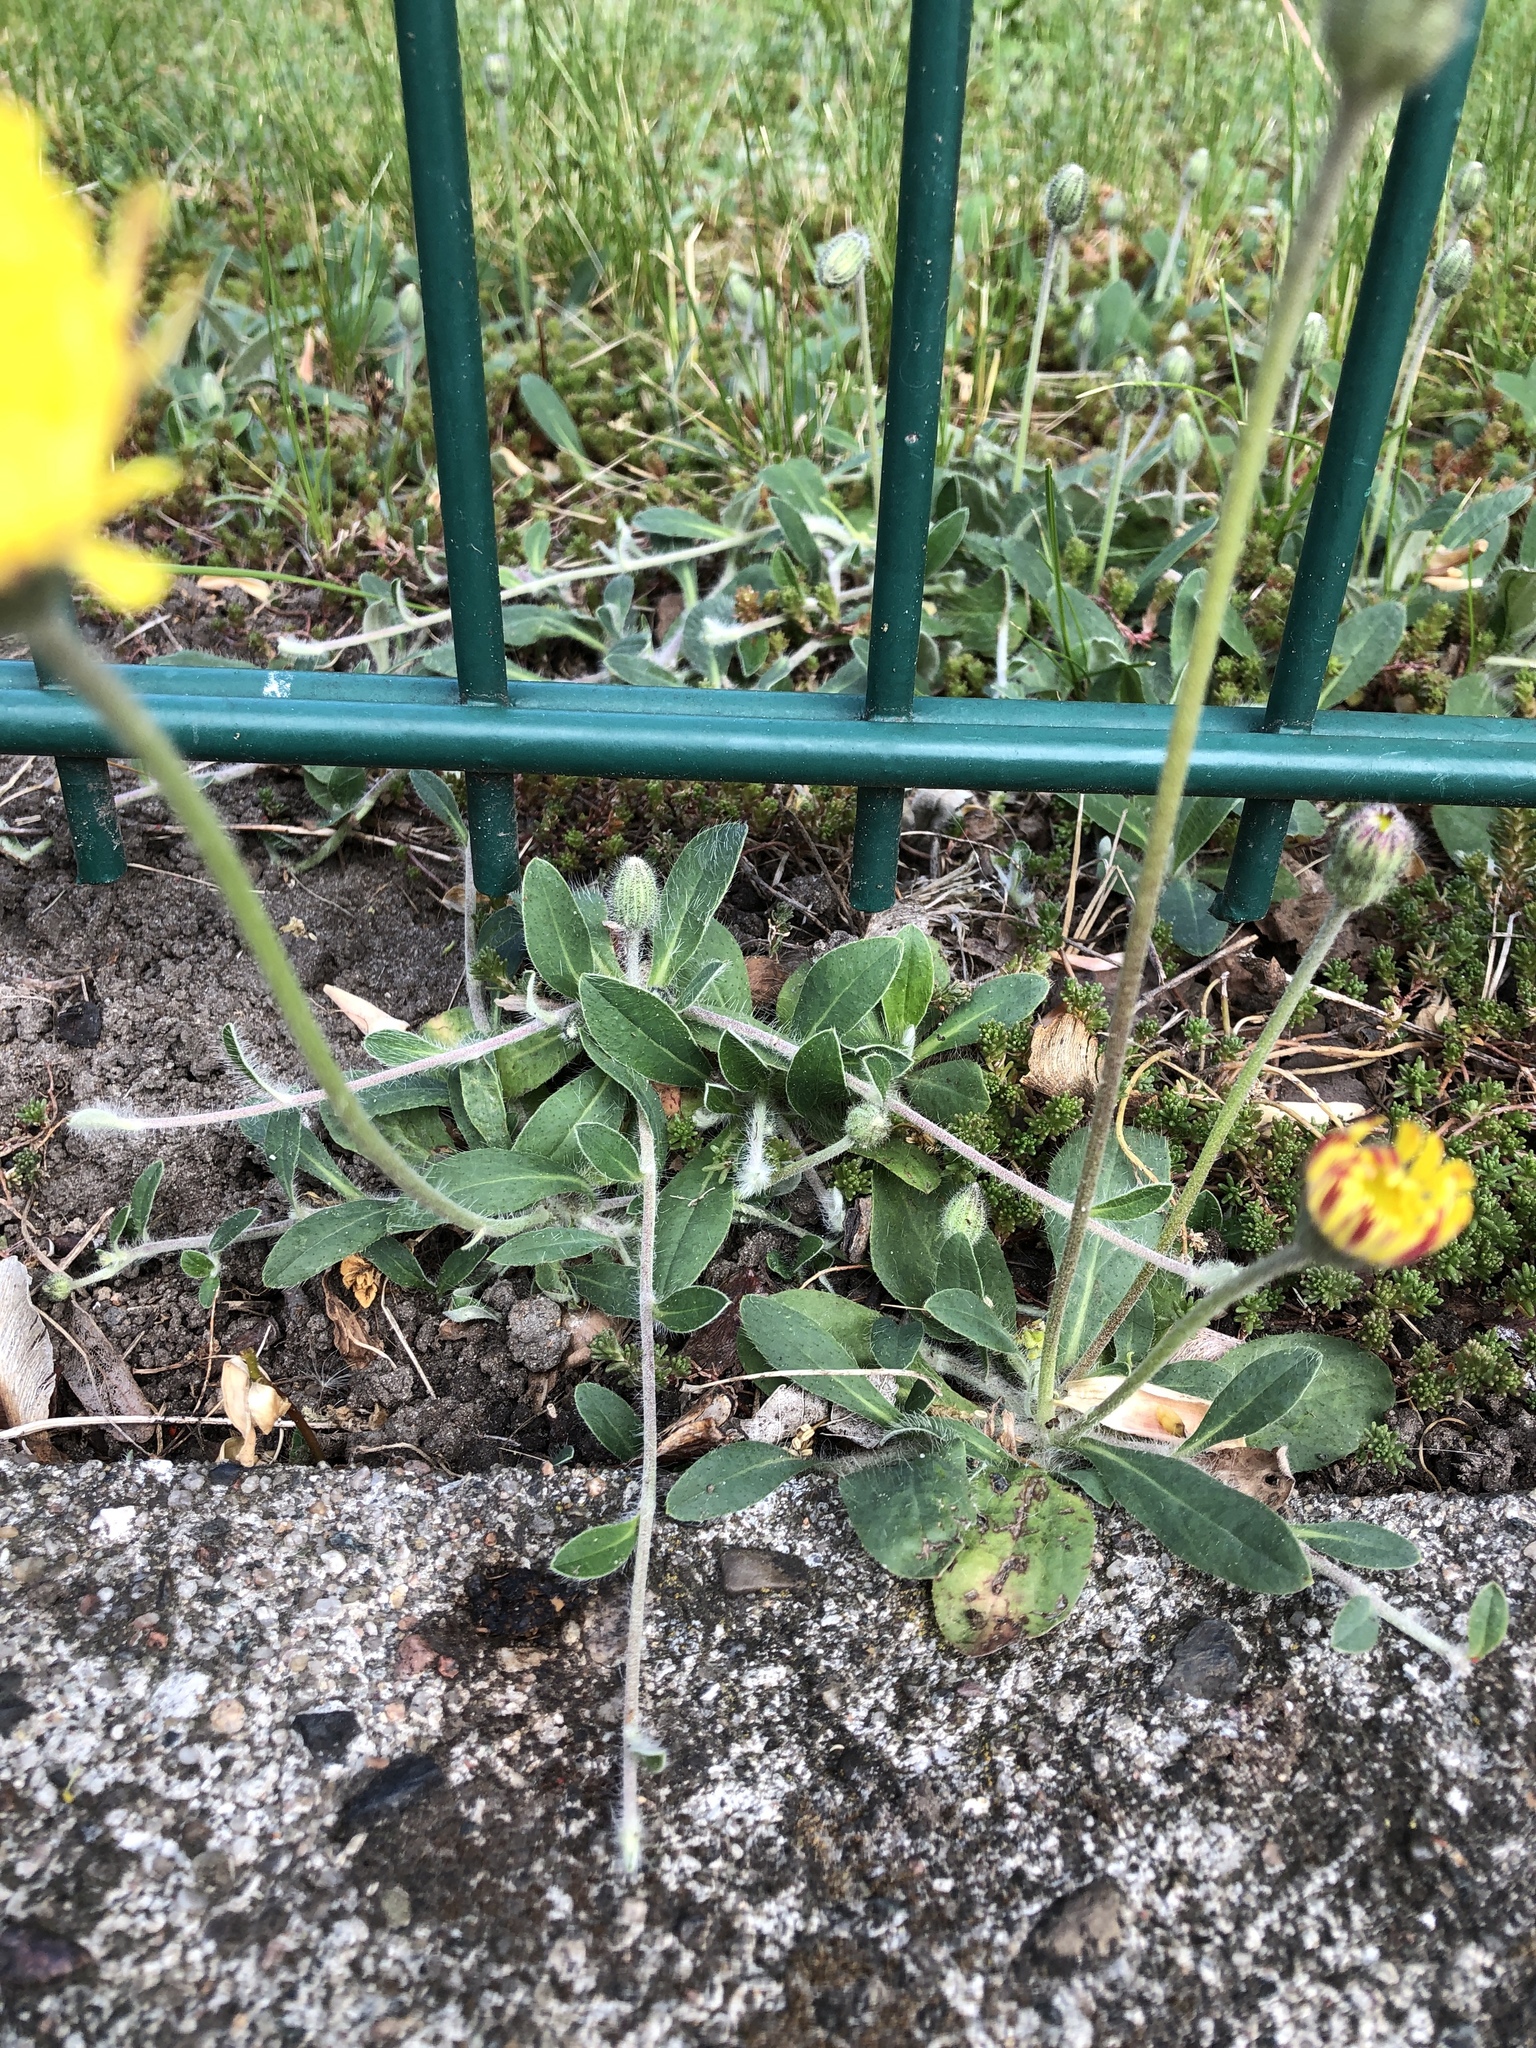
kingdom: Plantae
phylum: Tracheophyta
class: Magnoliopsida
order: Asterales
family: Asteraceae
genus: Pilosella
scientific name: Pilosella officinarum
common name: Mouse-ear hawkweed
